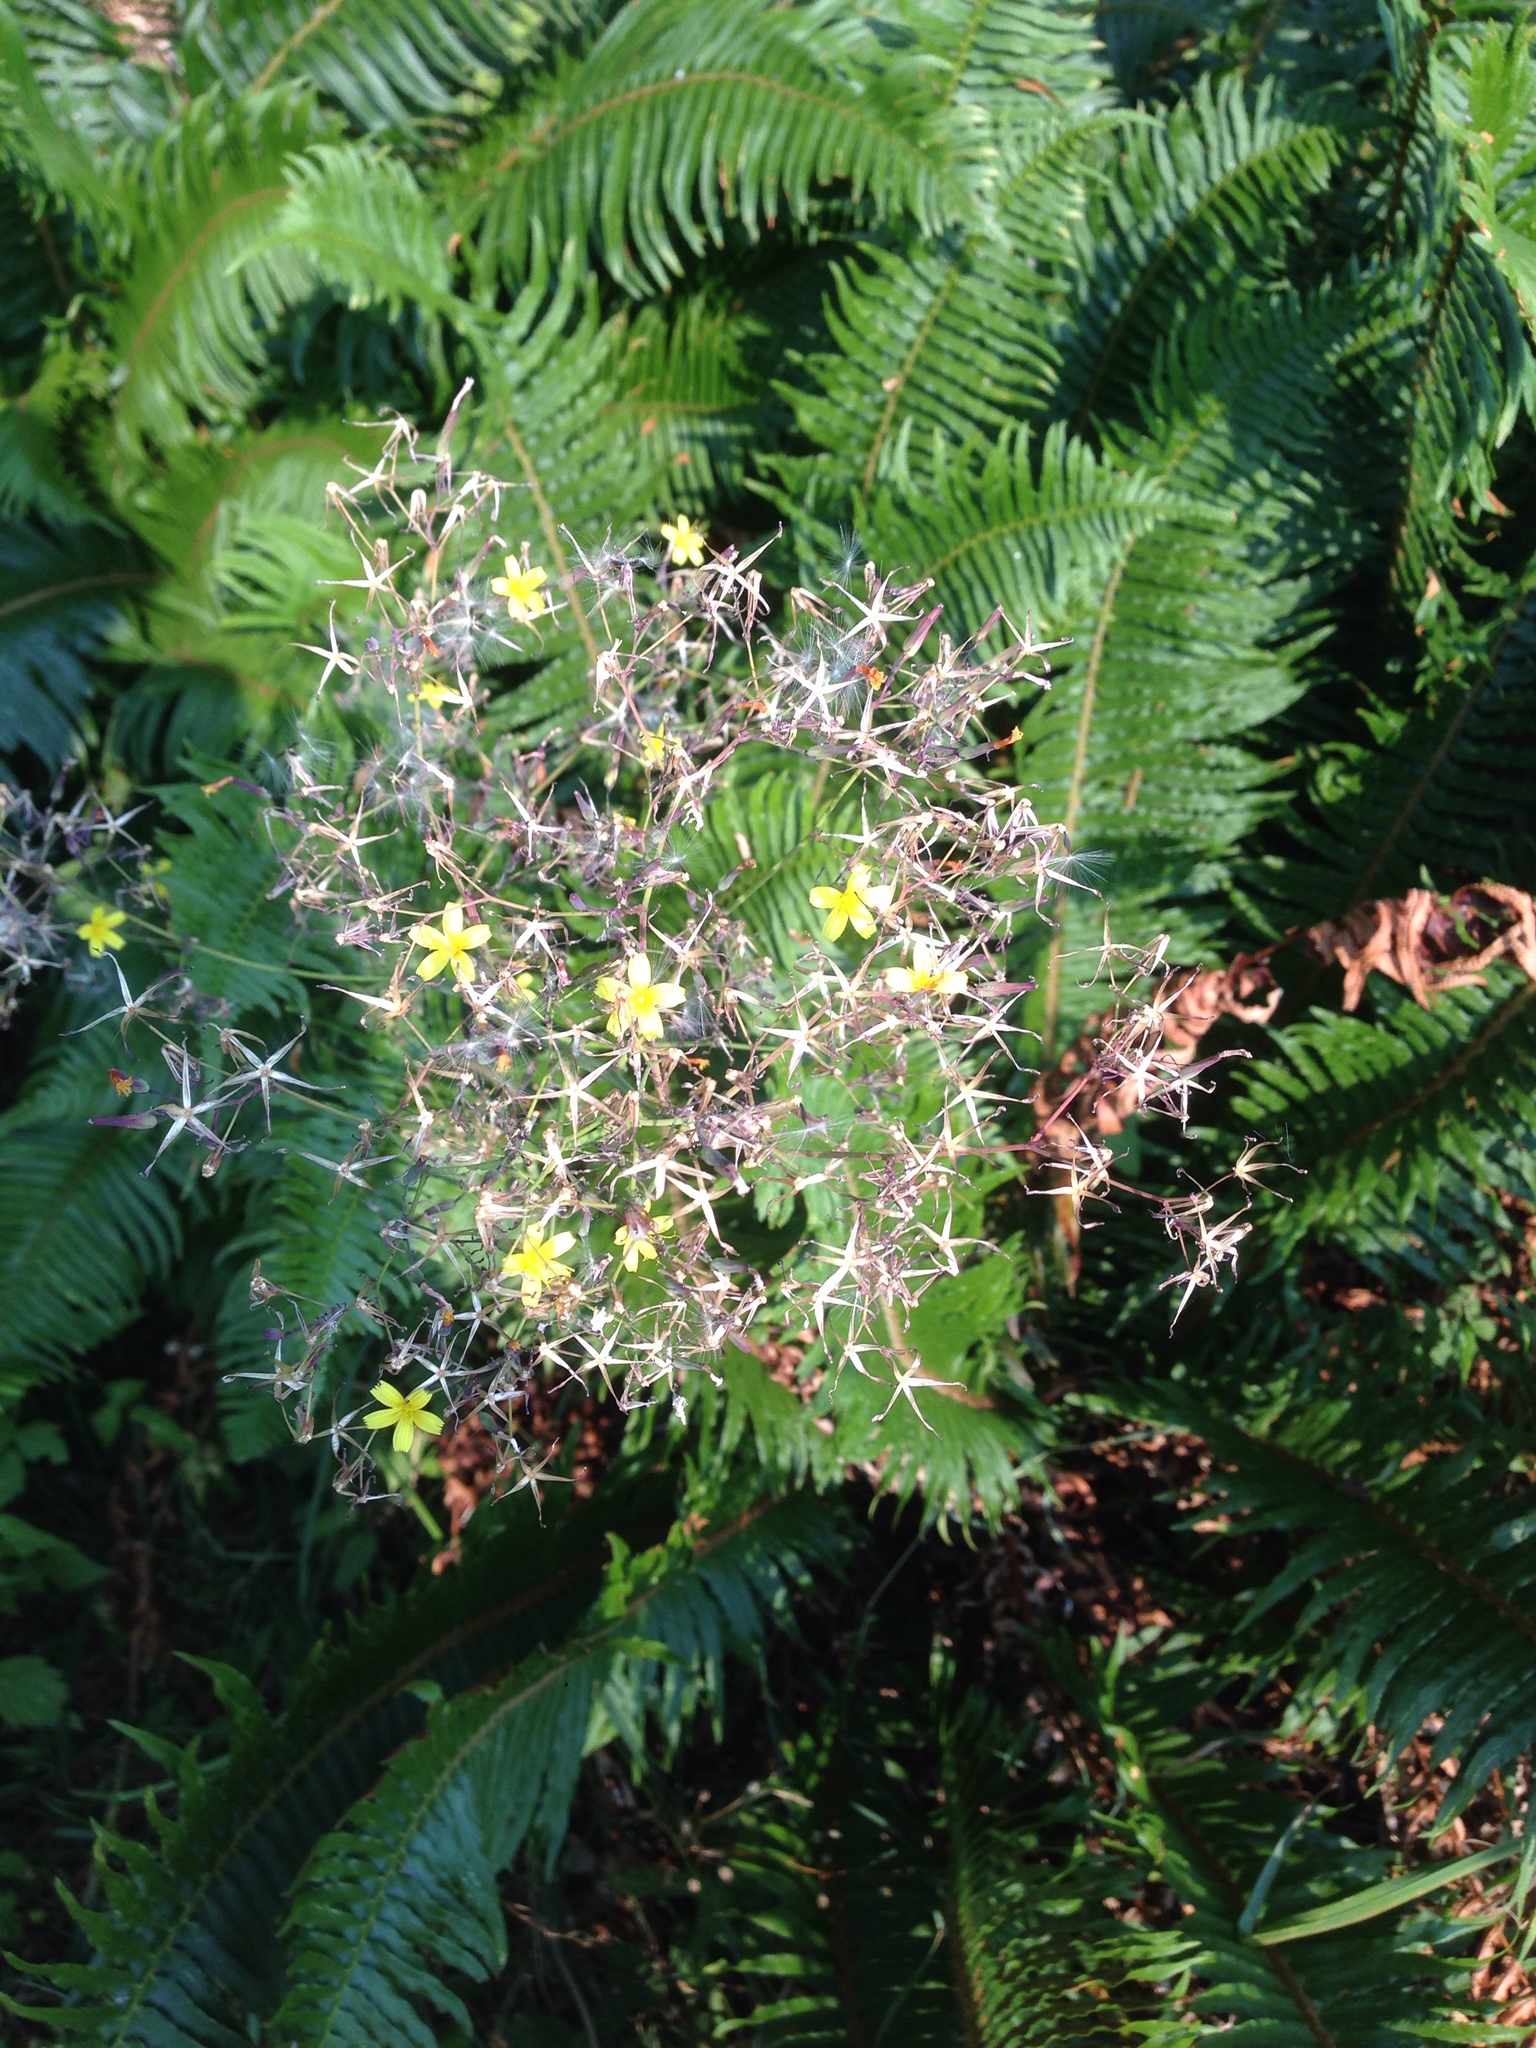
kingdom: Plantae
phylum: Tracheophyta
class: Magnoliopsida
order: Asterales
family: Asteraceae
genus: Mycelis
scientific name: Mycelis muralis
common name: Wall lettuce
